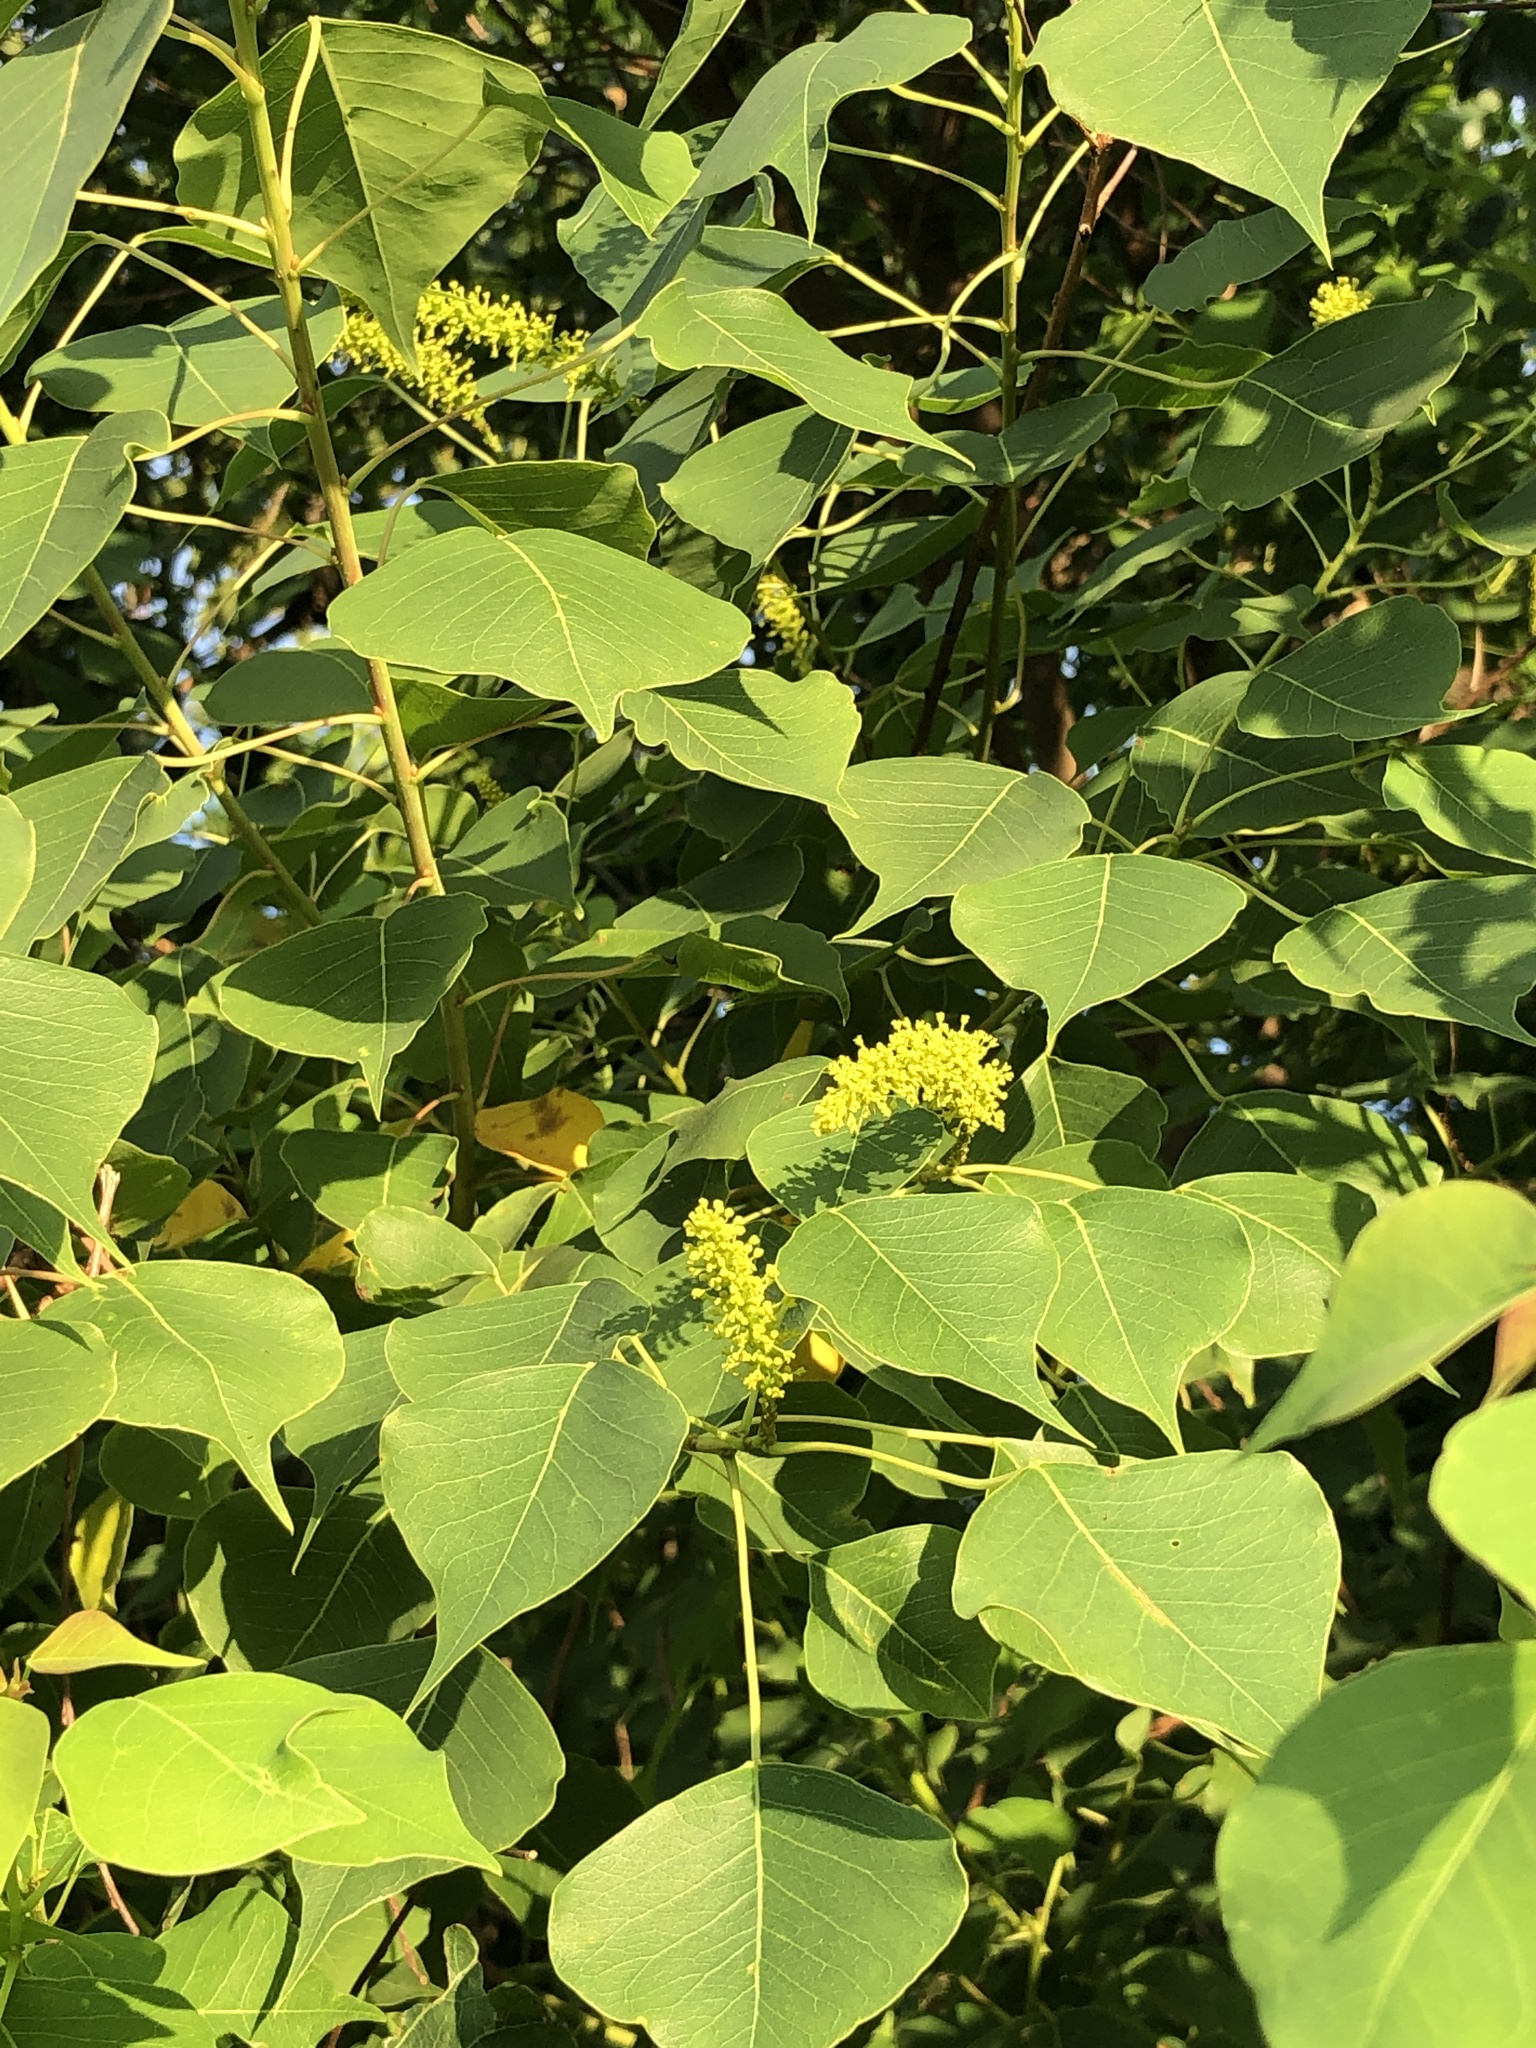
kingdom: Plantae
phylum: Tracheophyta
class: Magnoliopsida
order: Malpighiales
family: Euphorbiaceae
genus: Triadica
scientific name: Triadica sebifera
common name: Chinese tallow
